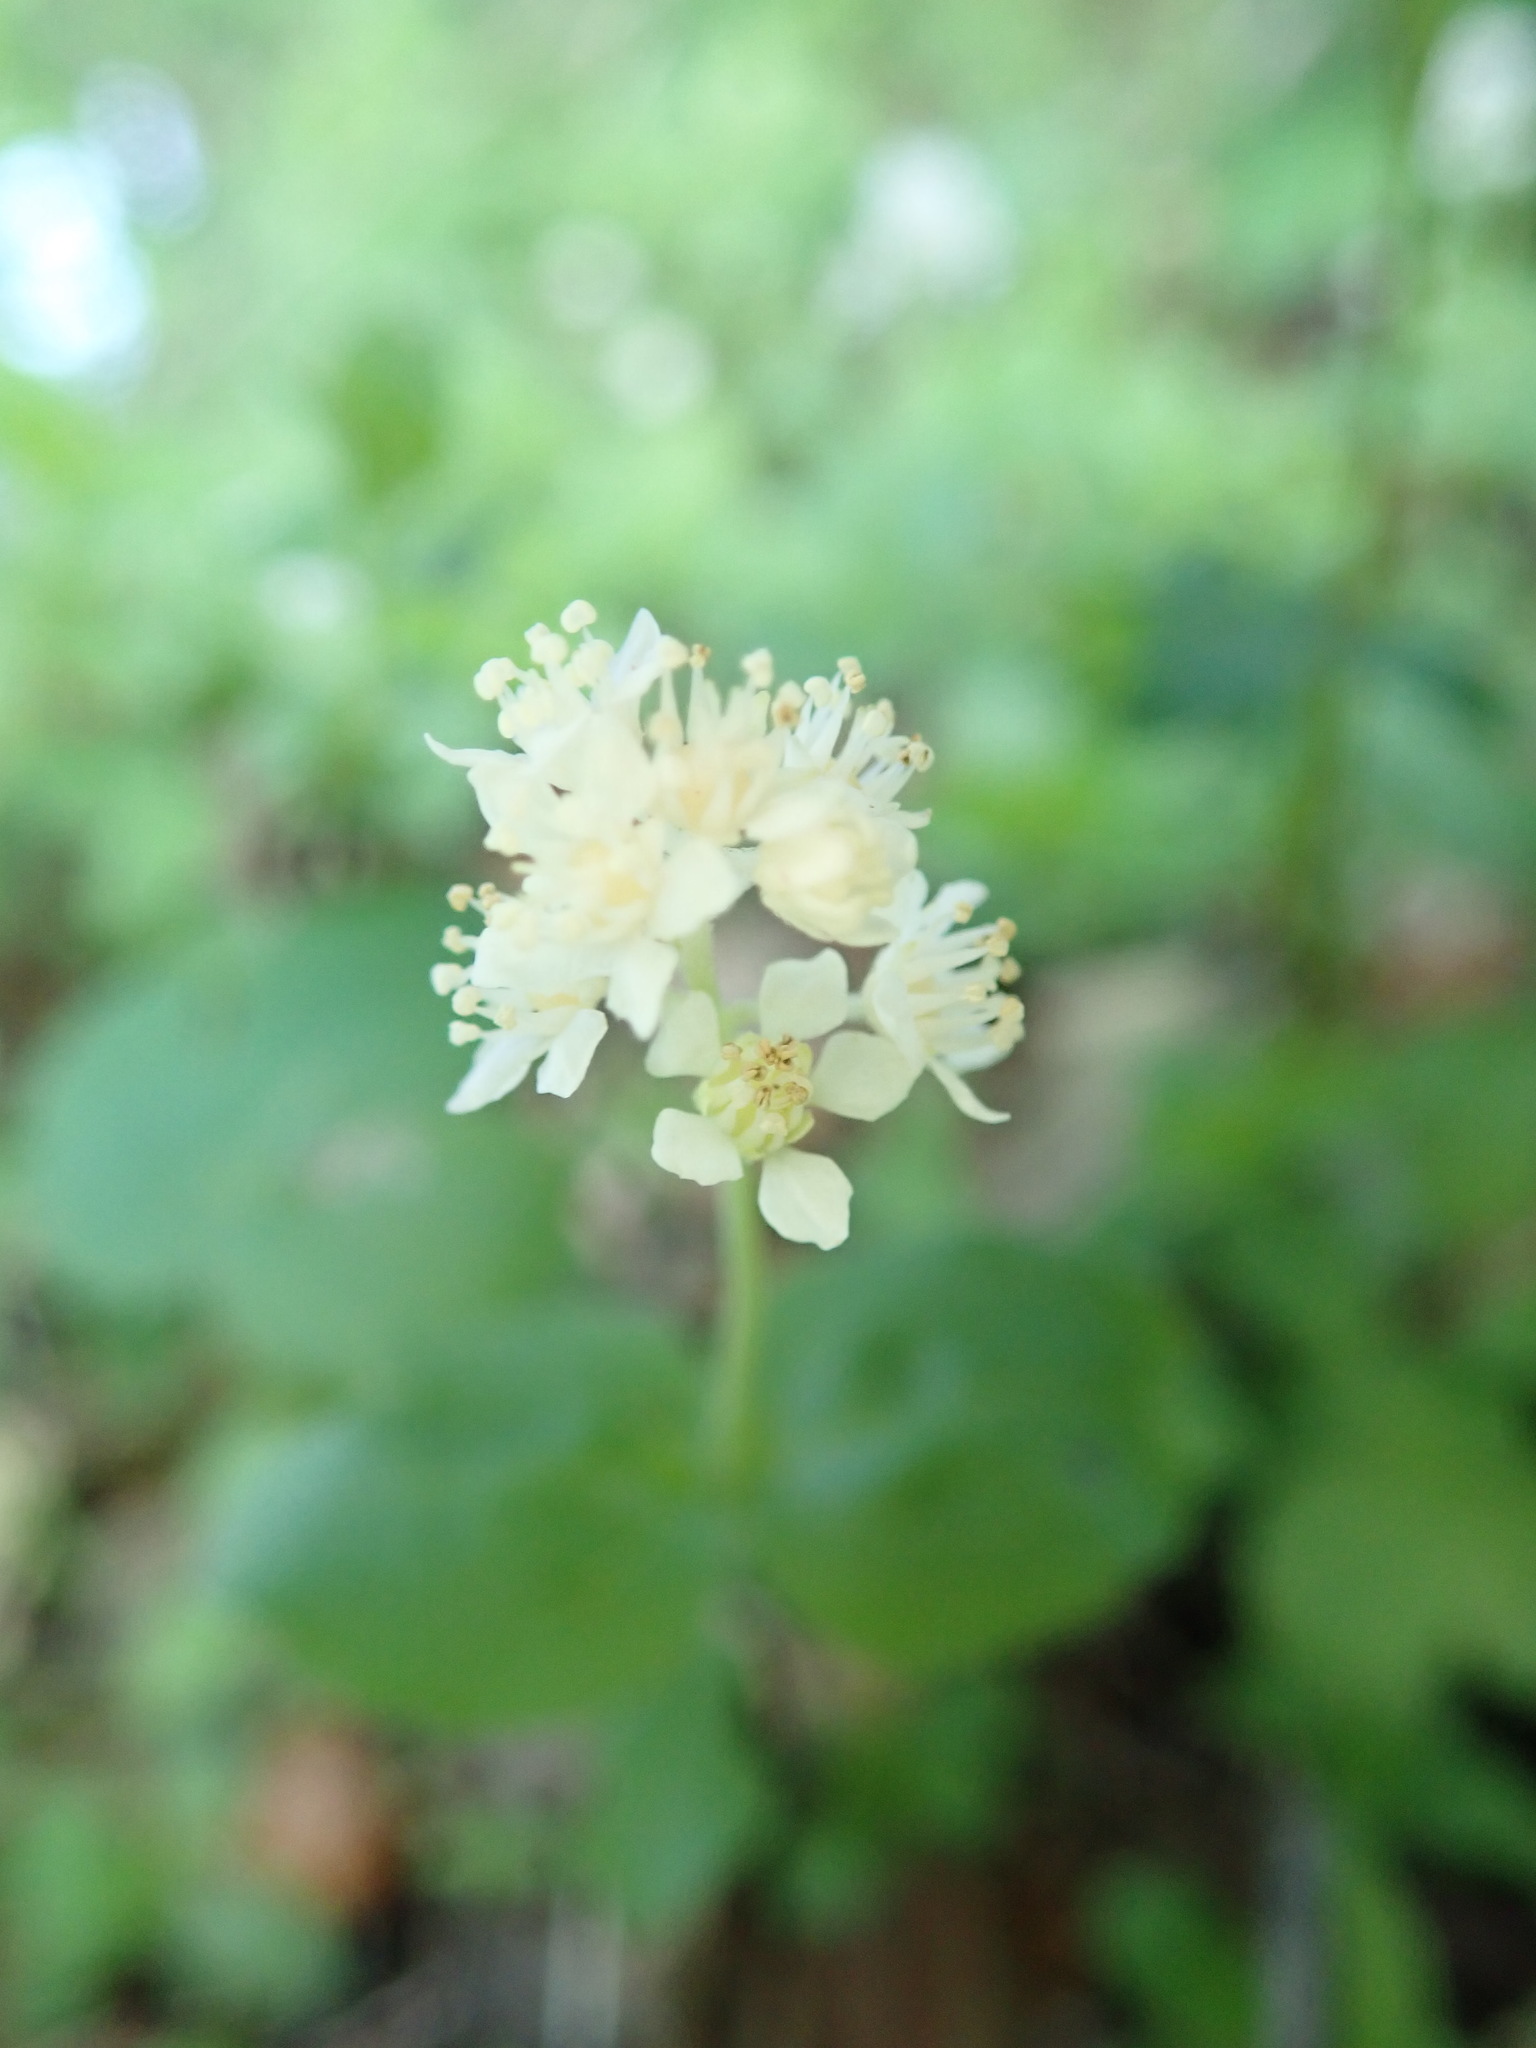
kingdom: Plantae
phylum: Tracheophyta
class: Magnoliopsida
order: Cornales
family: Hydrangeaceae
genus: Whipplea
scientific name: Whipplea modesta
